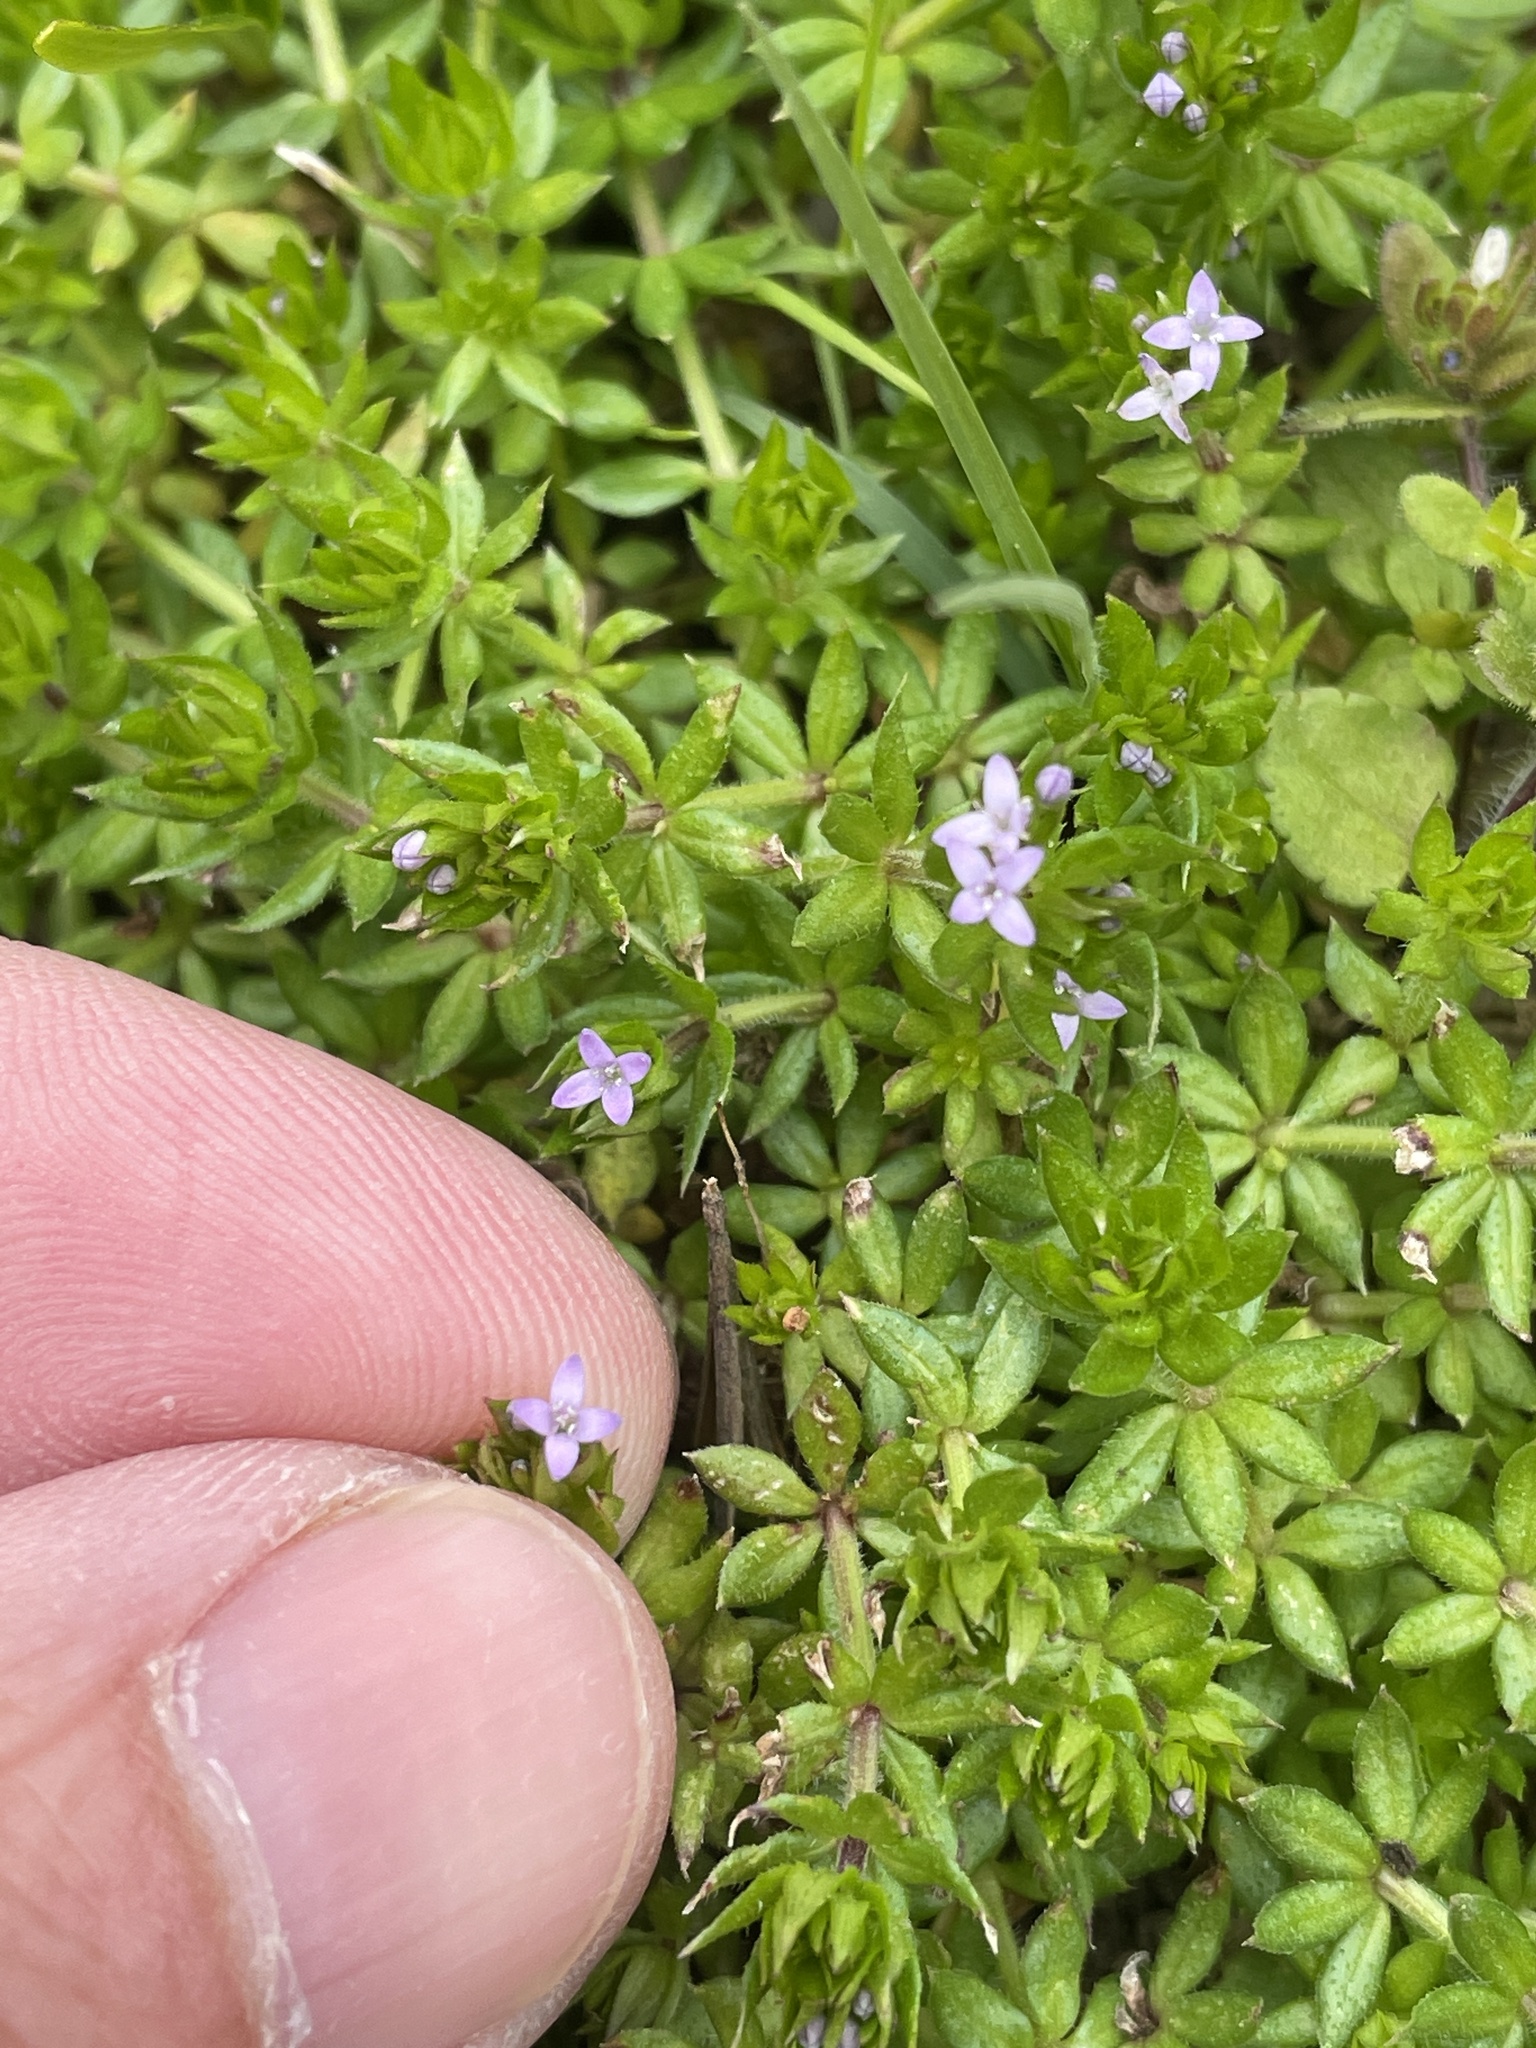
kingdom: Plantae
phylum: Tracheophyta
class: Magnoliopsida
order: Gentianales
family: Rubiaceae
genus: Sherardia
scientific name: Sherardia arvensis
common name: Field madder
